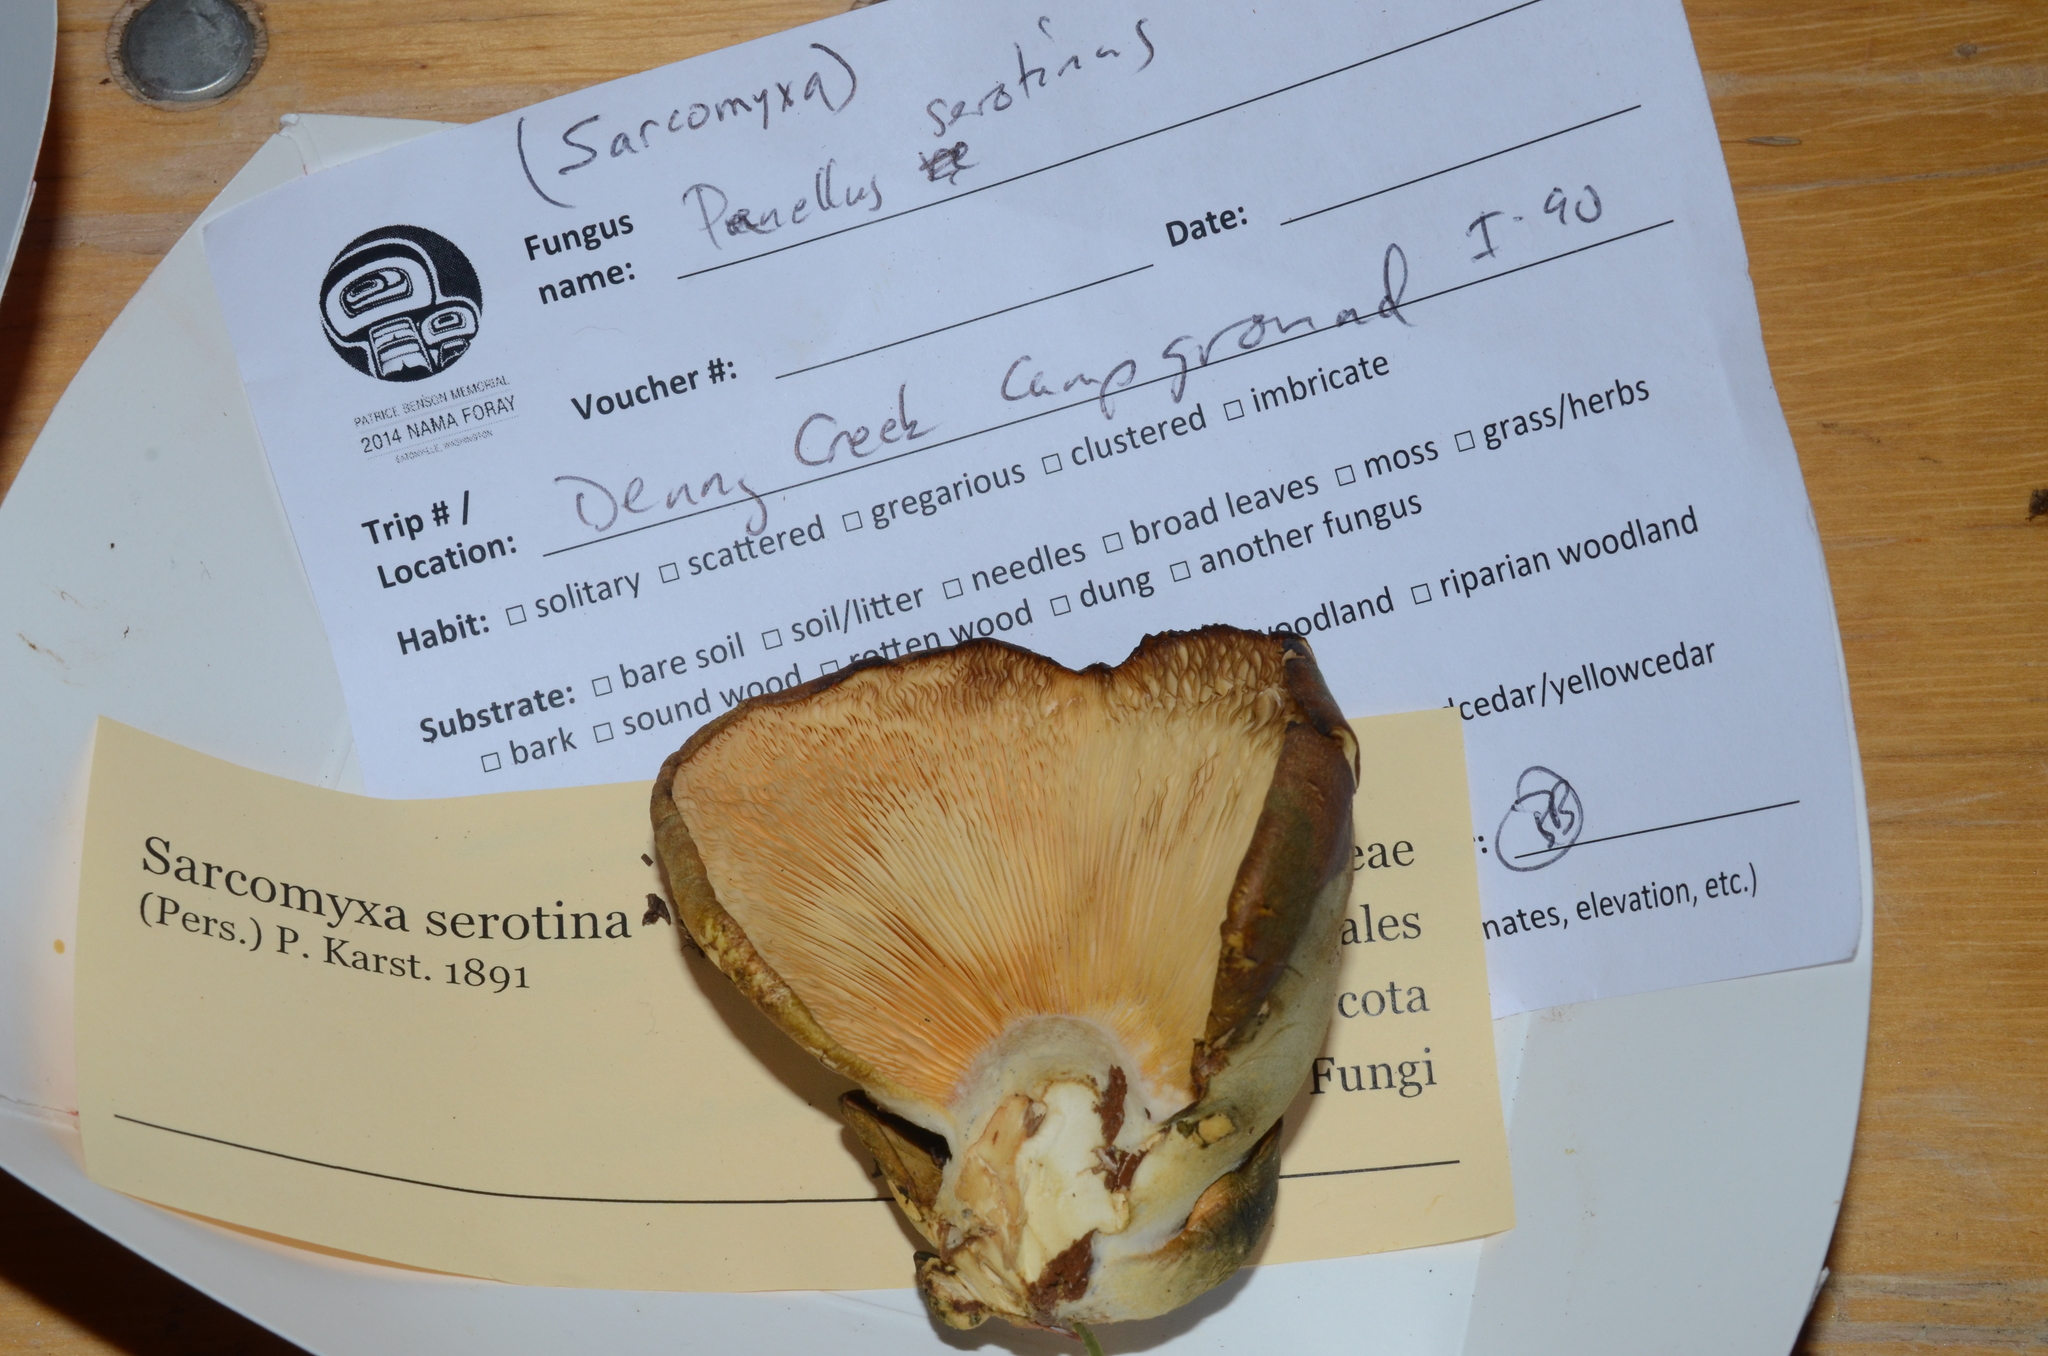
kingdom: Fungi
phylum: Basidiomycota
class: Agaricomycetes
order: Agaricales
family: Sarcomyxaceae
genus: Sarcomyxa
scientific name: Sarcomyxa serotina
